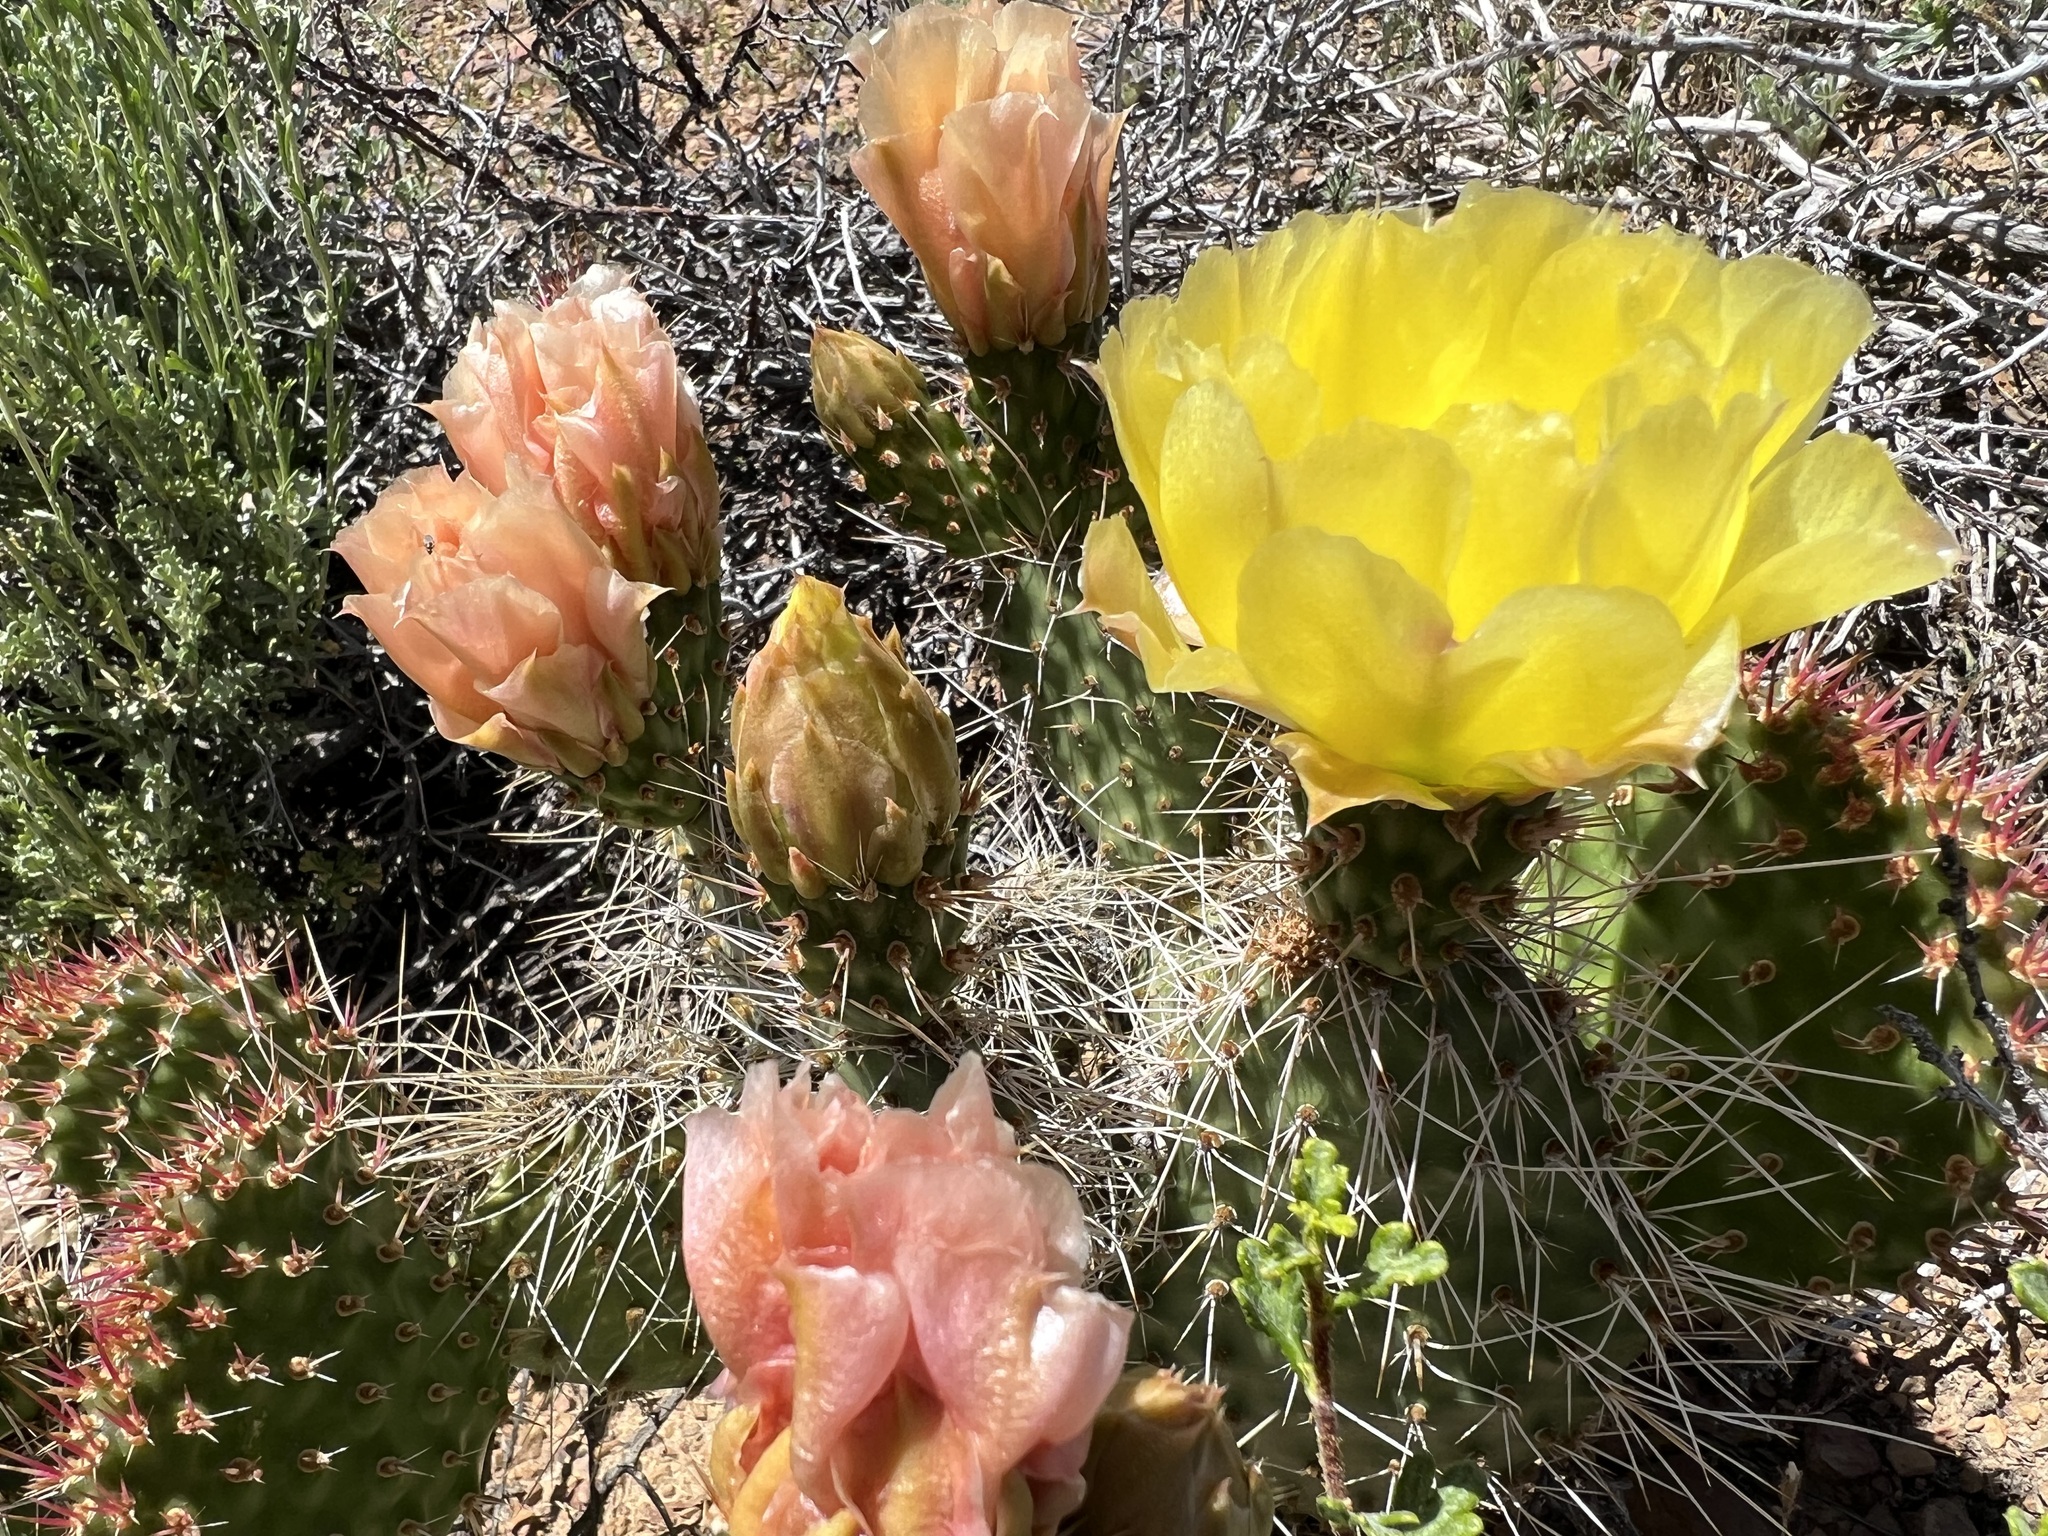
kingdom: Plantae
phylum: Tracheophyta
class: Magnoliopsida
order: Caryophyllales
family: Cactaceae
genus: Opuntia
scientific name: Opuntia polyacantha
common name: Plains prickly-pear
